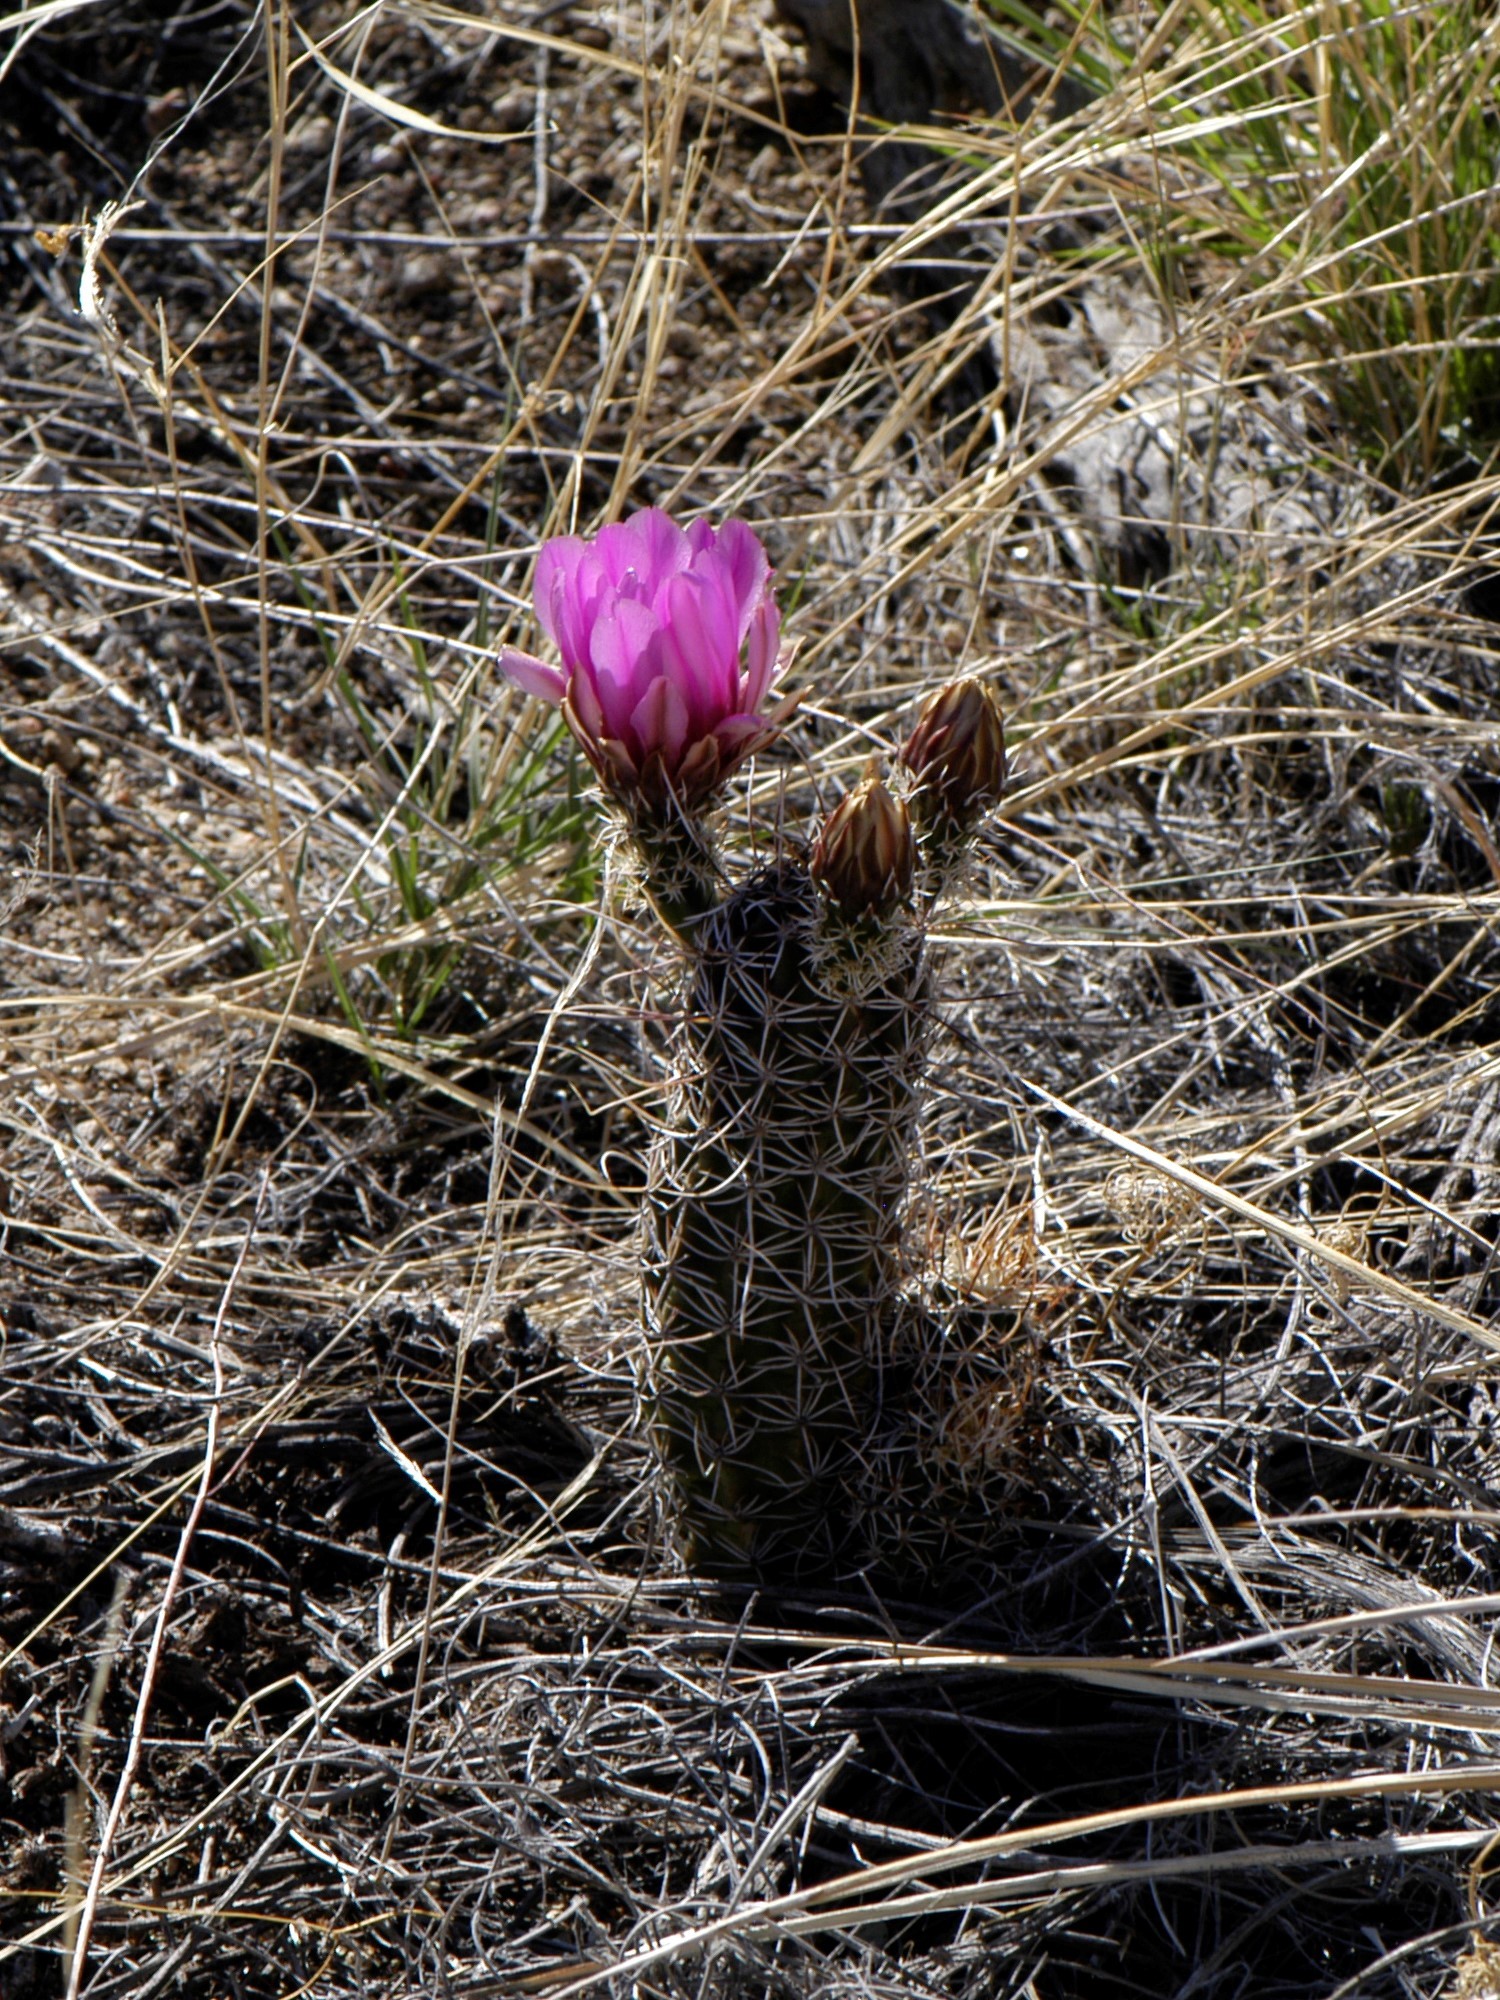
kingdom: Plantae
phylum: Tracheophyta
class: Magnoliopsida
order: Caryophyllales
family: Cactaceae
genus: Echinocereus
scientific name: Echinocereus fendleri
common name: Fendler's hedgehog cactus
